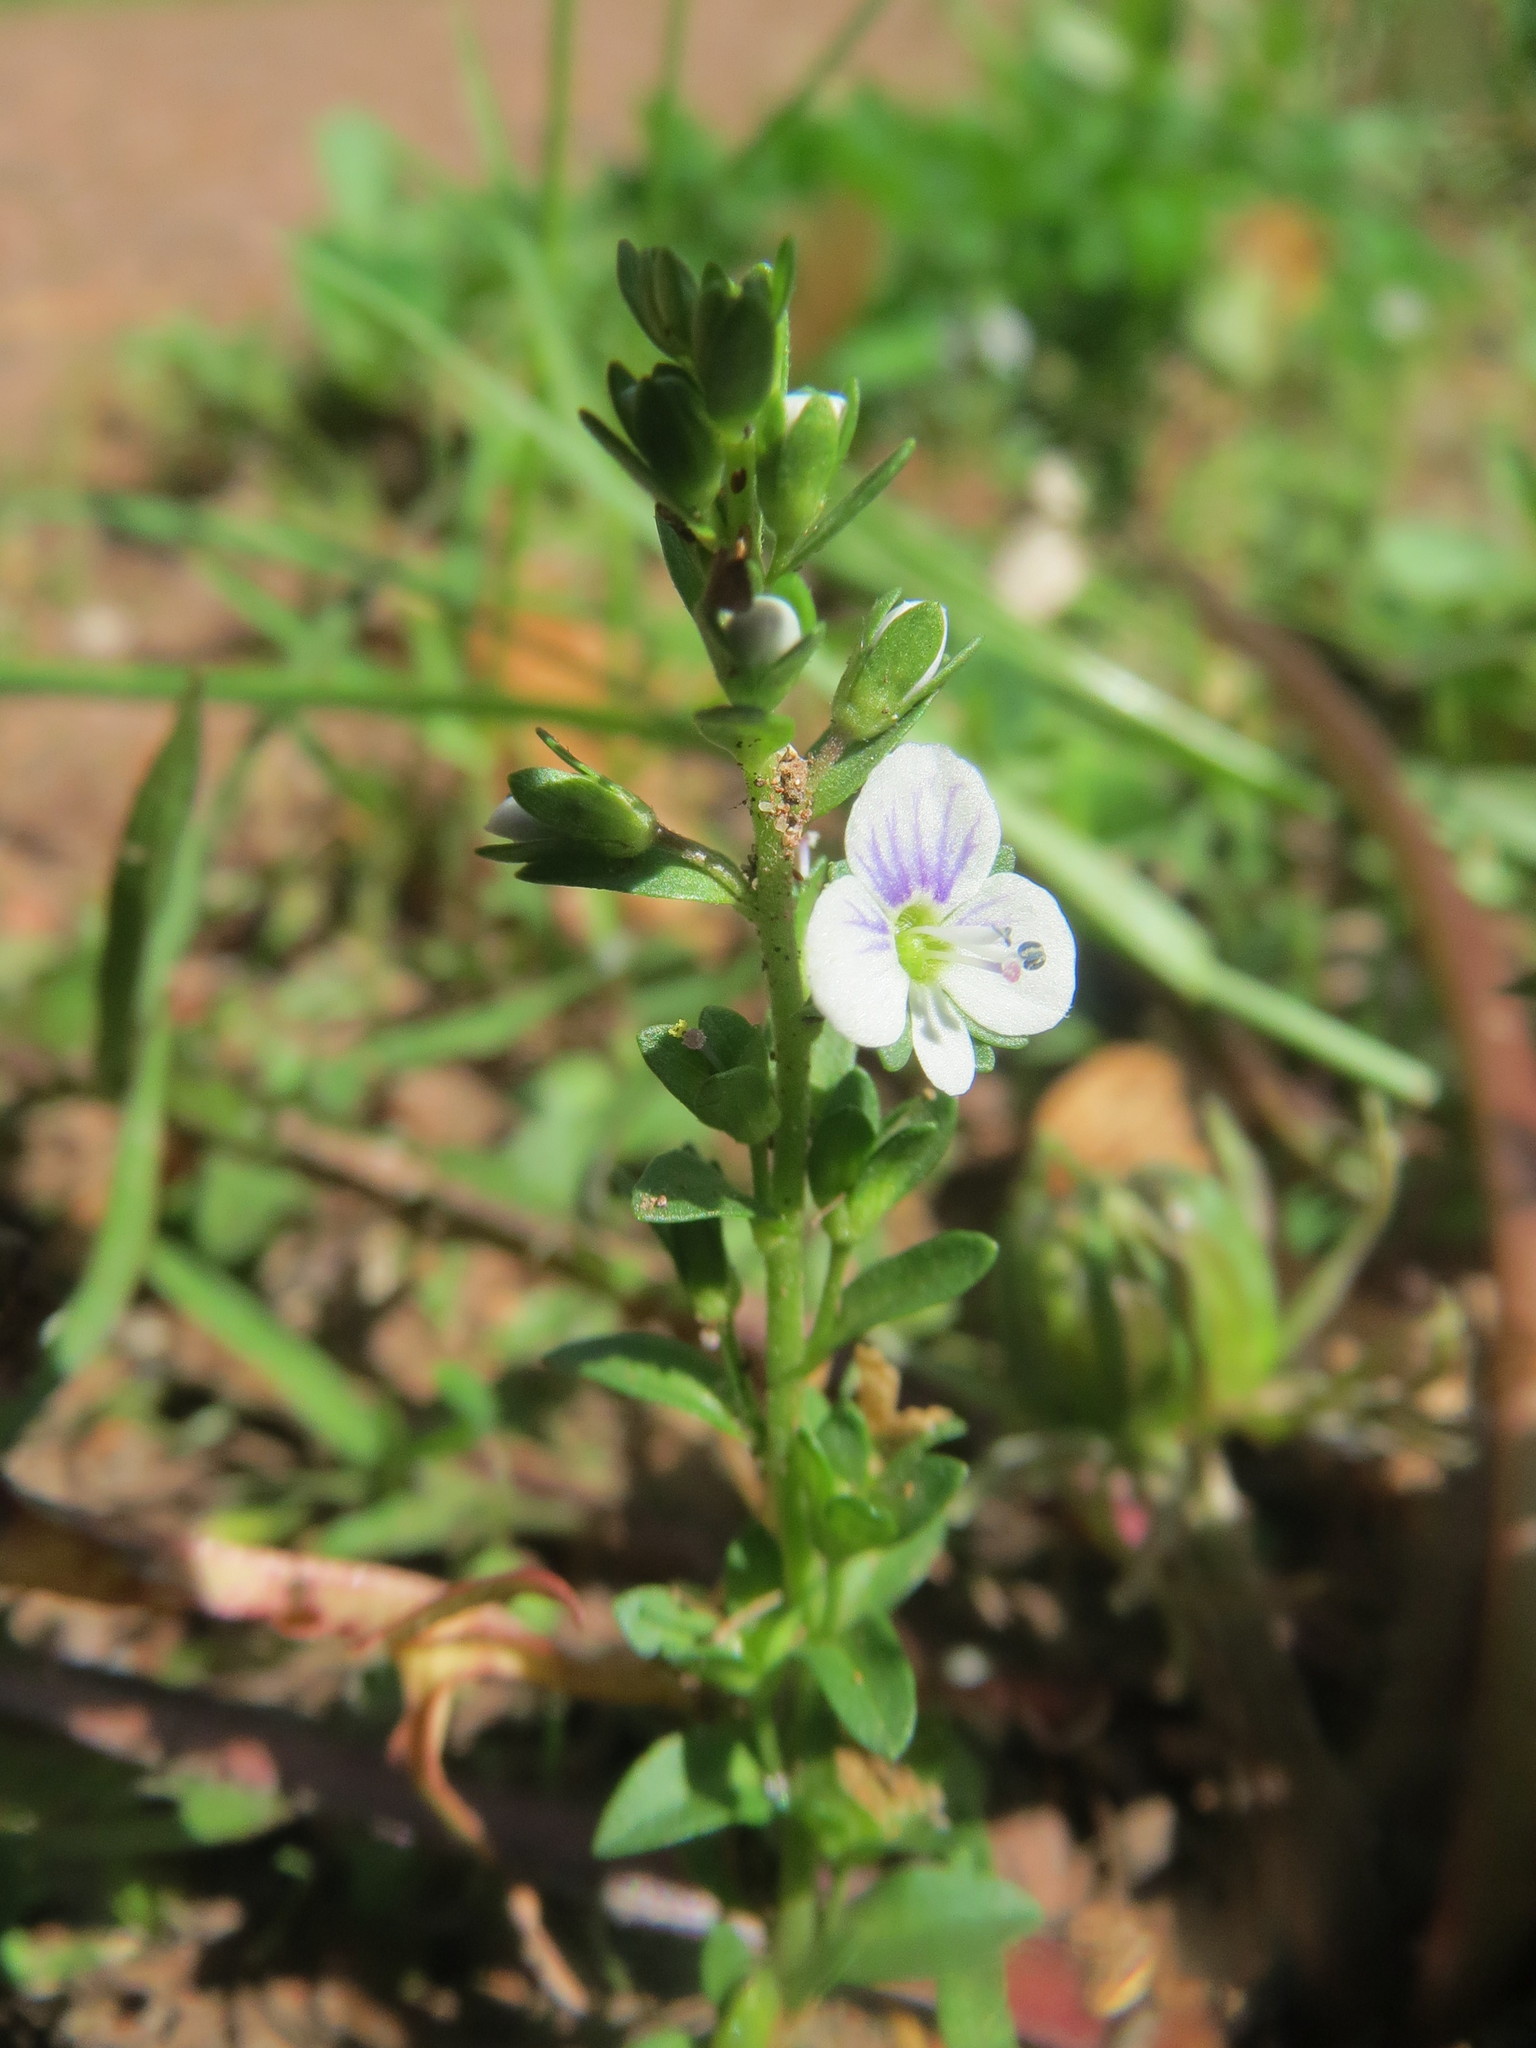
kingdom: Plantae
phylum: Tracheophyta
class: Magnoliopsida
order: Lamiales
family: Plantaginaceae
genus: Veronica
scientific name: Veronica serpyllifolia
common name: Thyme-leaved speedwell
